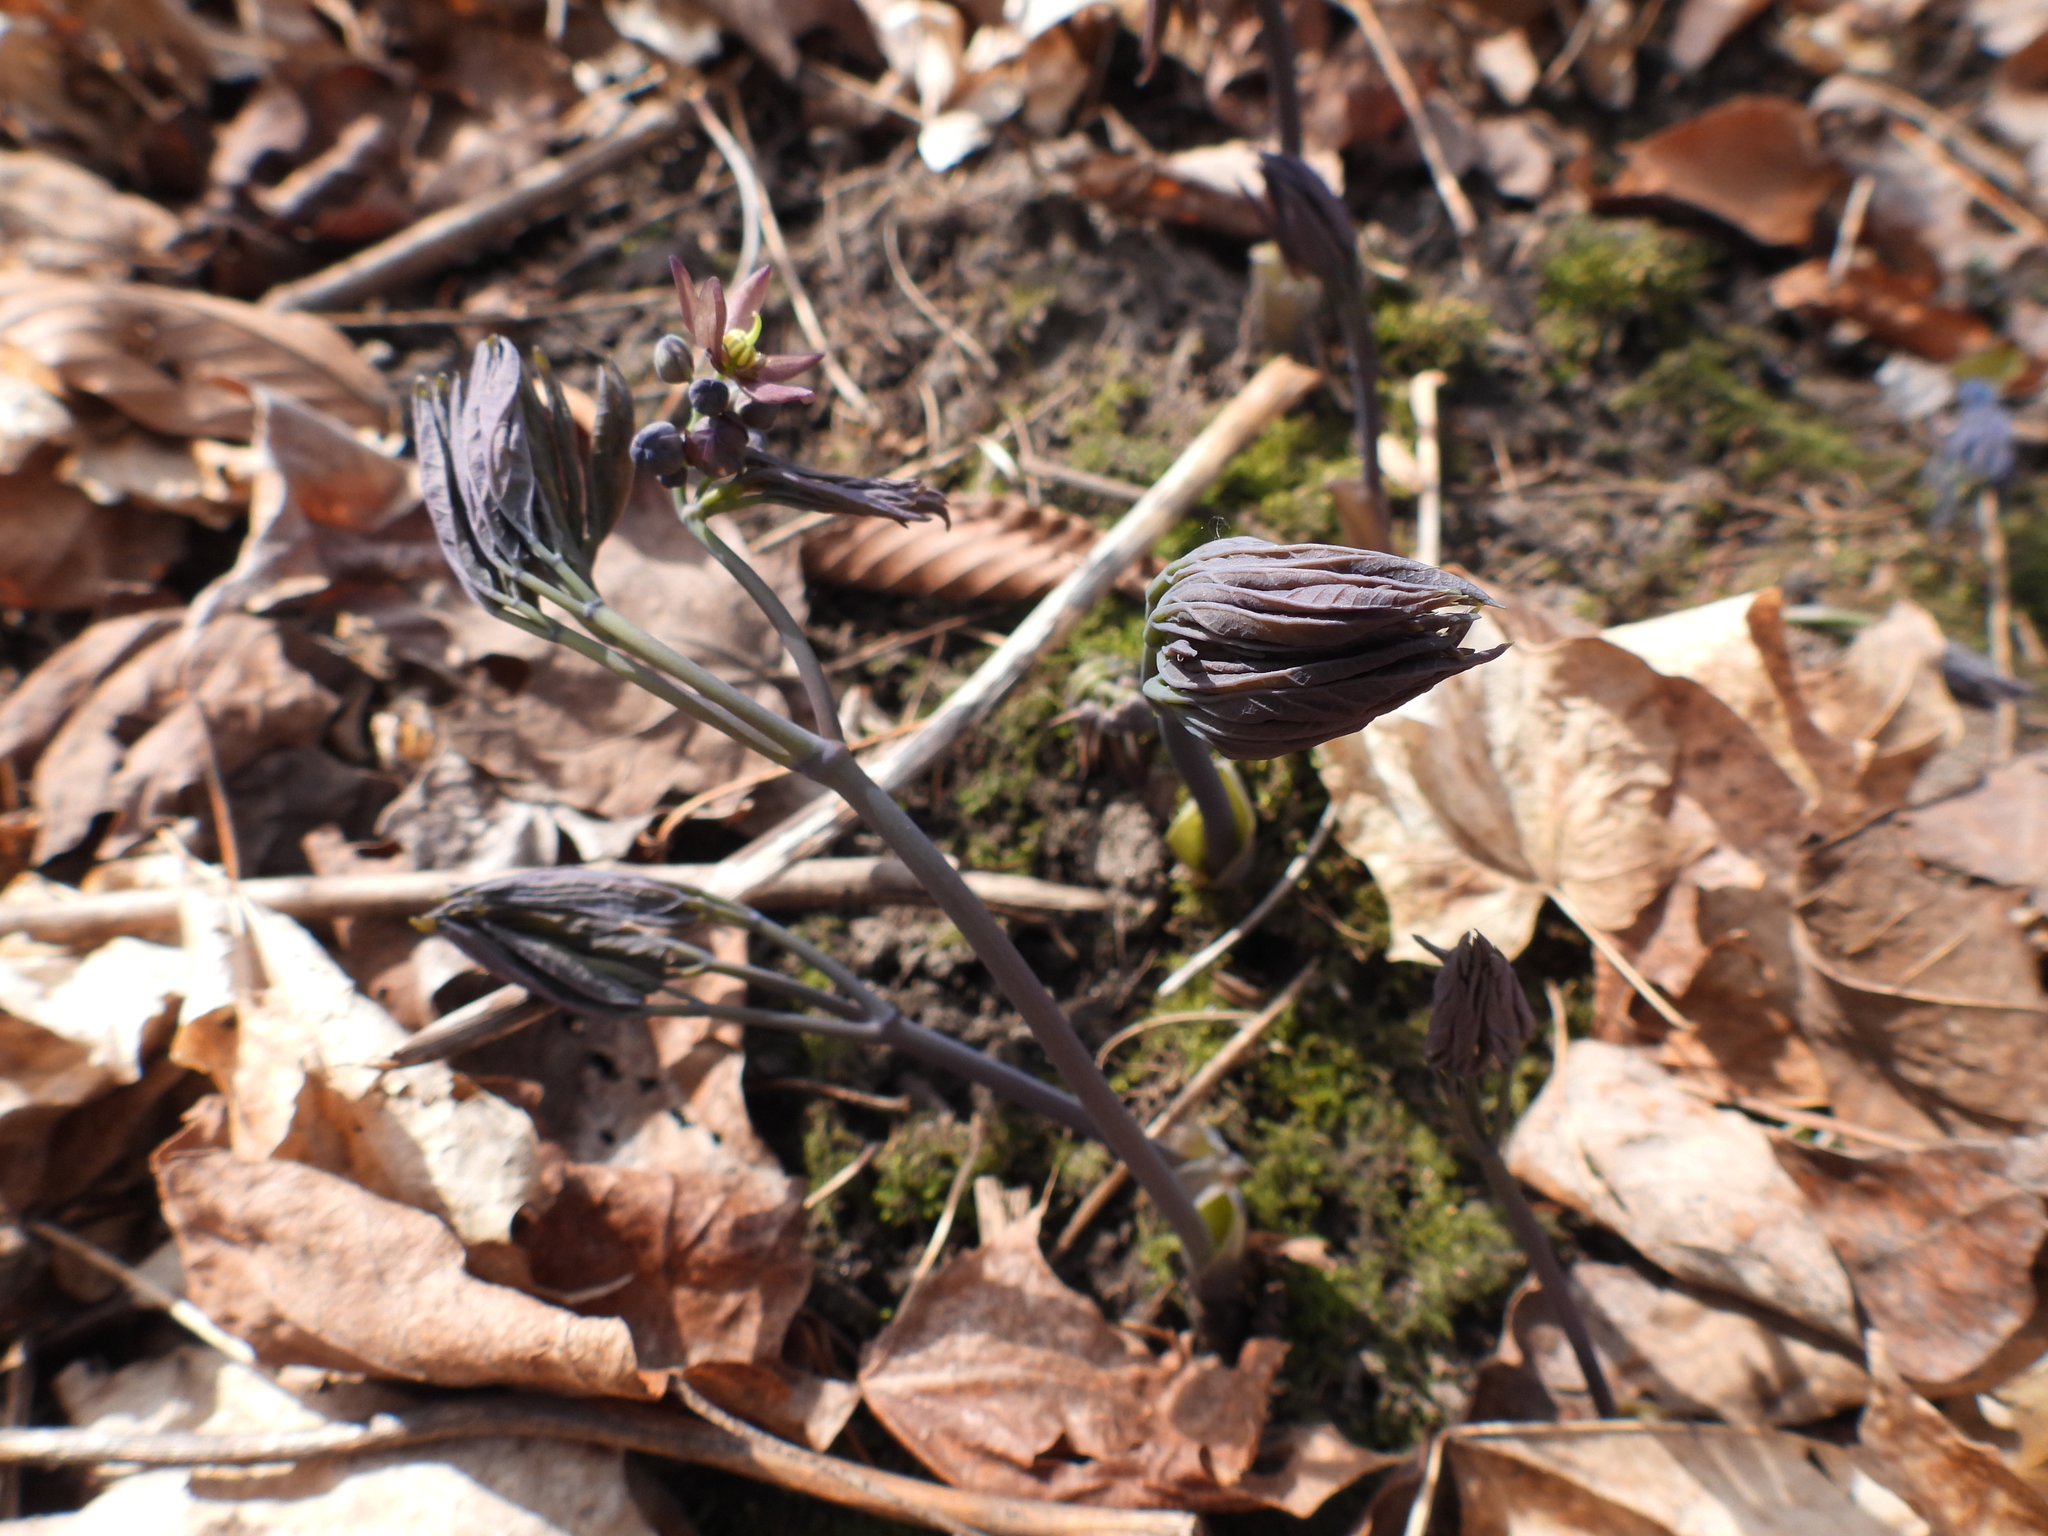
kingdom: Plantae
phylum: Tracheophyta
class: Magnoliopsida
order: Ranunculales
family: Berberidaceae
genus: Caulophyllum
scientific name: Caulophyllum giganteum
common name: Blue cohosh
